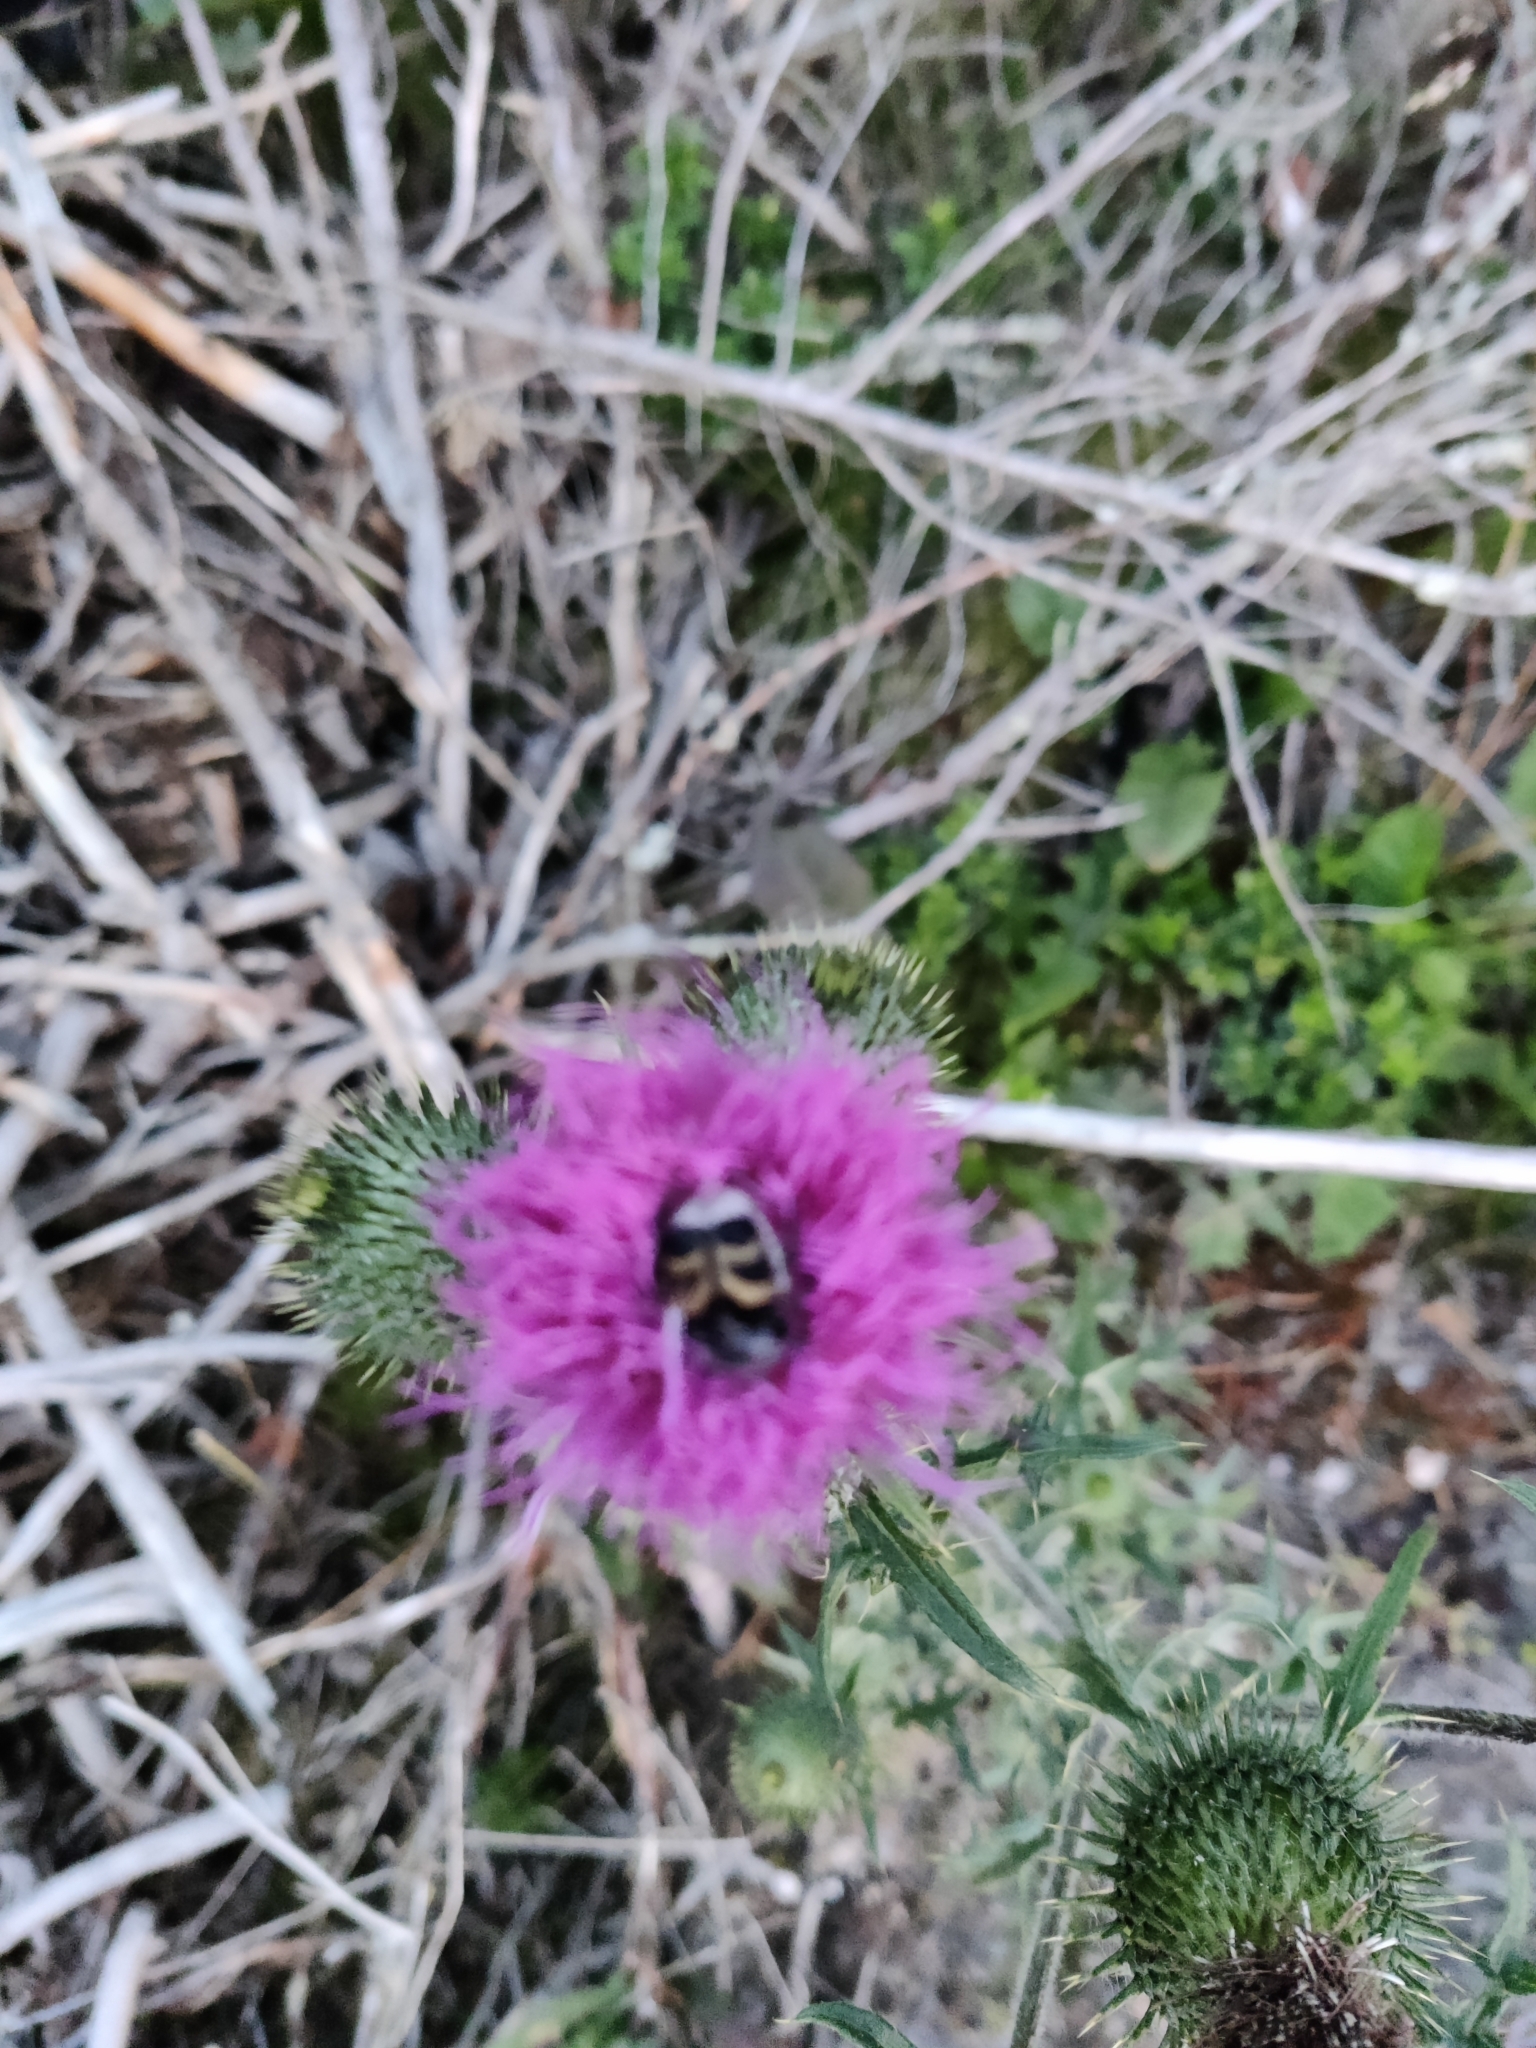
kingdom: Animalia
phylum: Arthropoda
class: Insecta
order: Coleoptera
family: Scarabaeidae
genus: Trichius
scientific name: Trichius fasciatus
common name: Bee beetle
